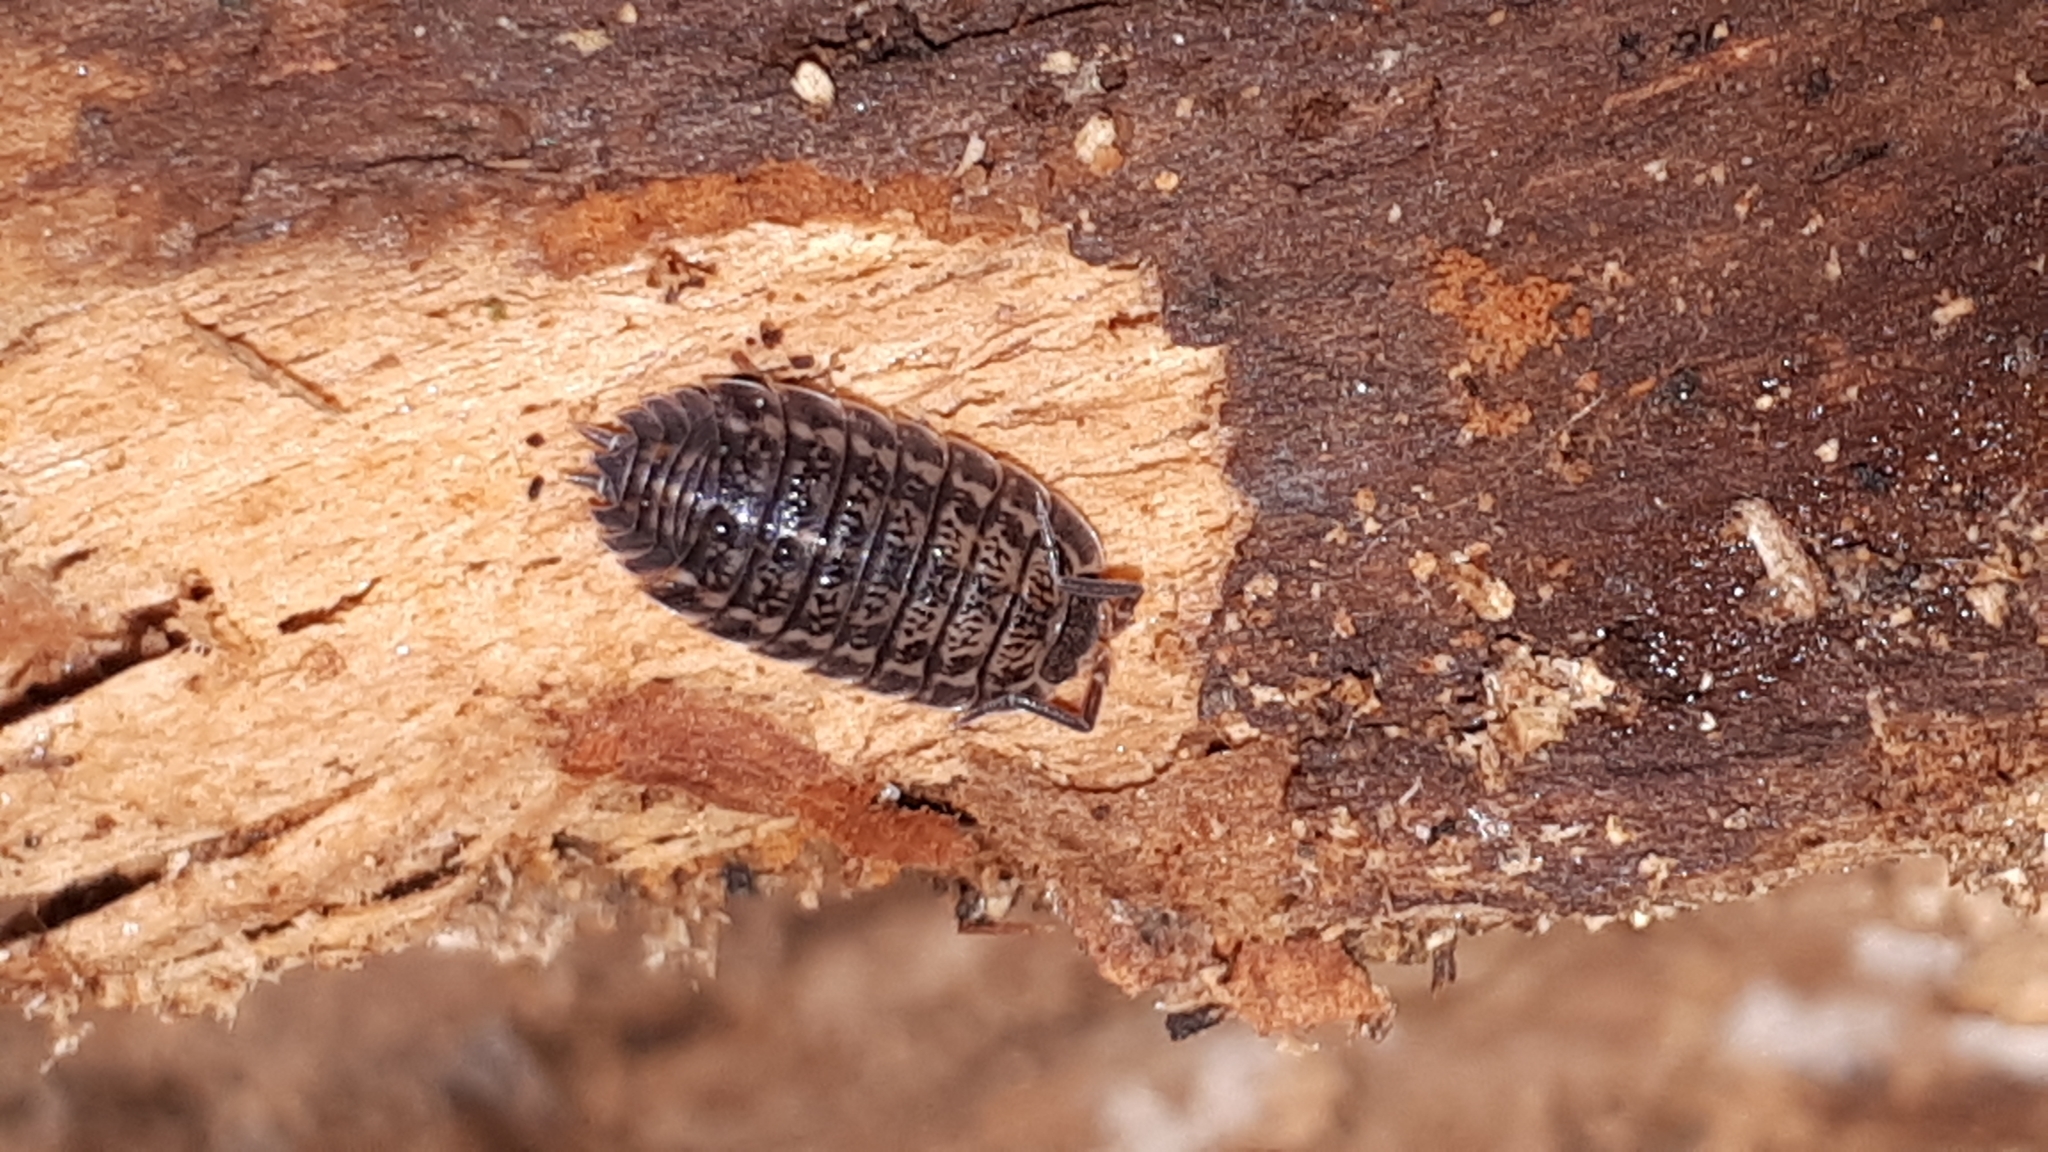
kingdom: Animalia
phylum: Arthropoda
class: Malacostraca
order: Isopoda
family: Trachelipodidae
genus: Trachelipus
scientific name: Trachelipus rathkii
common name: Isopod
